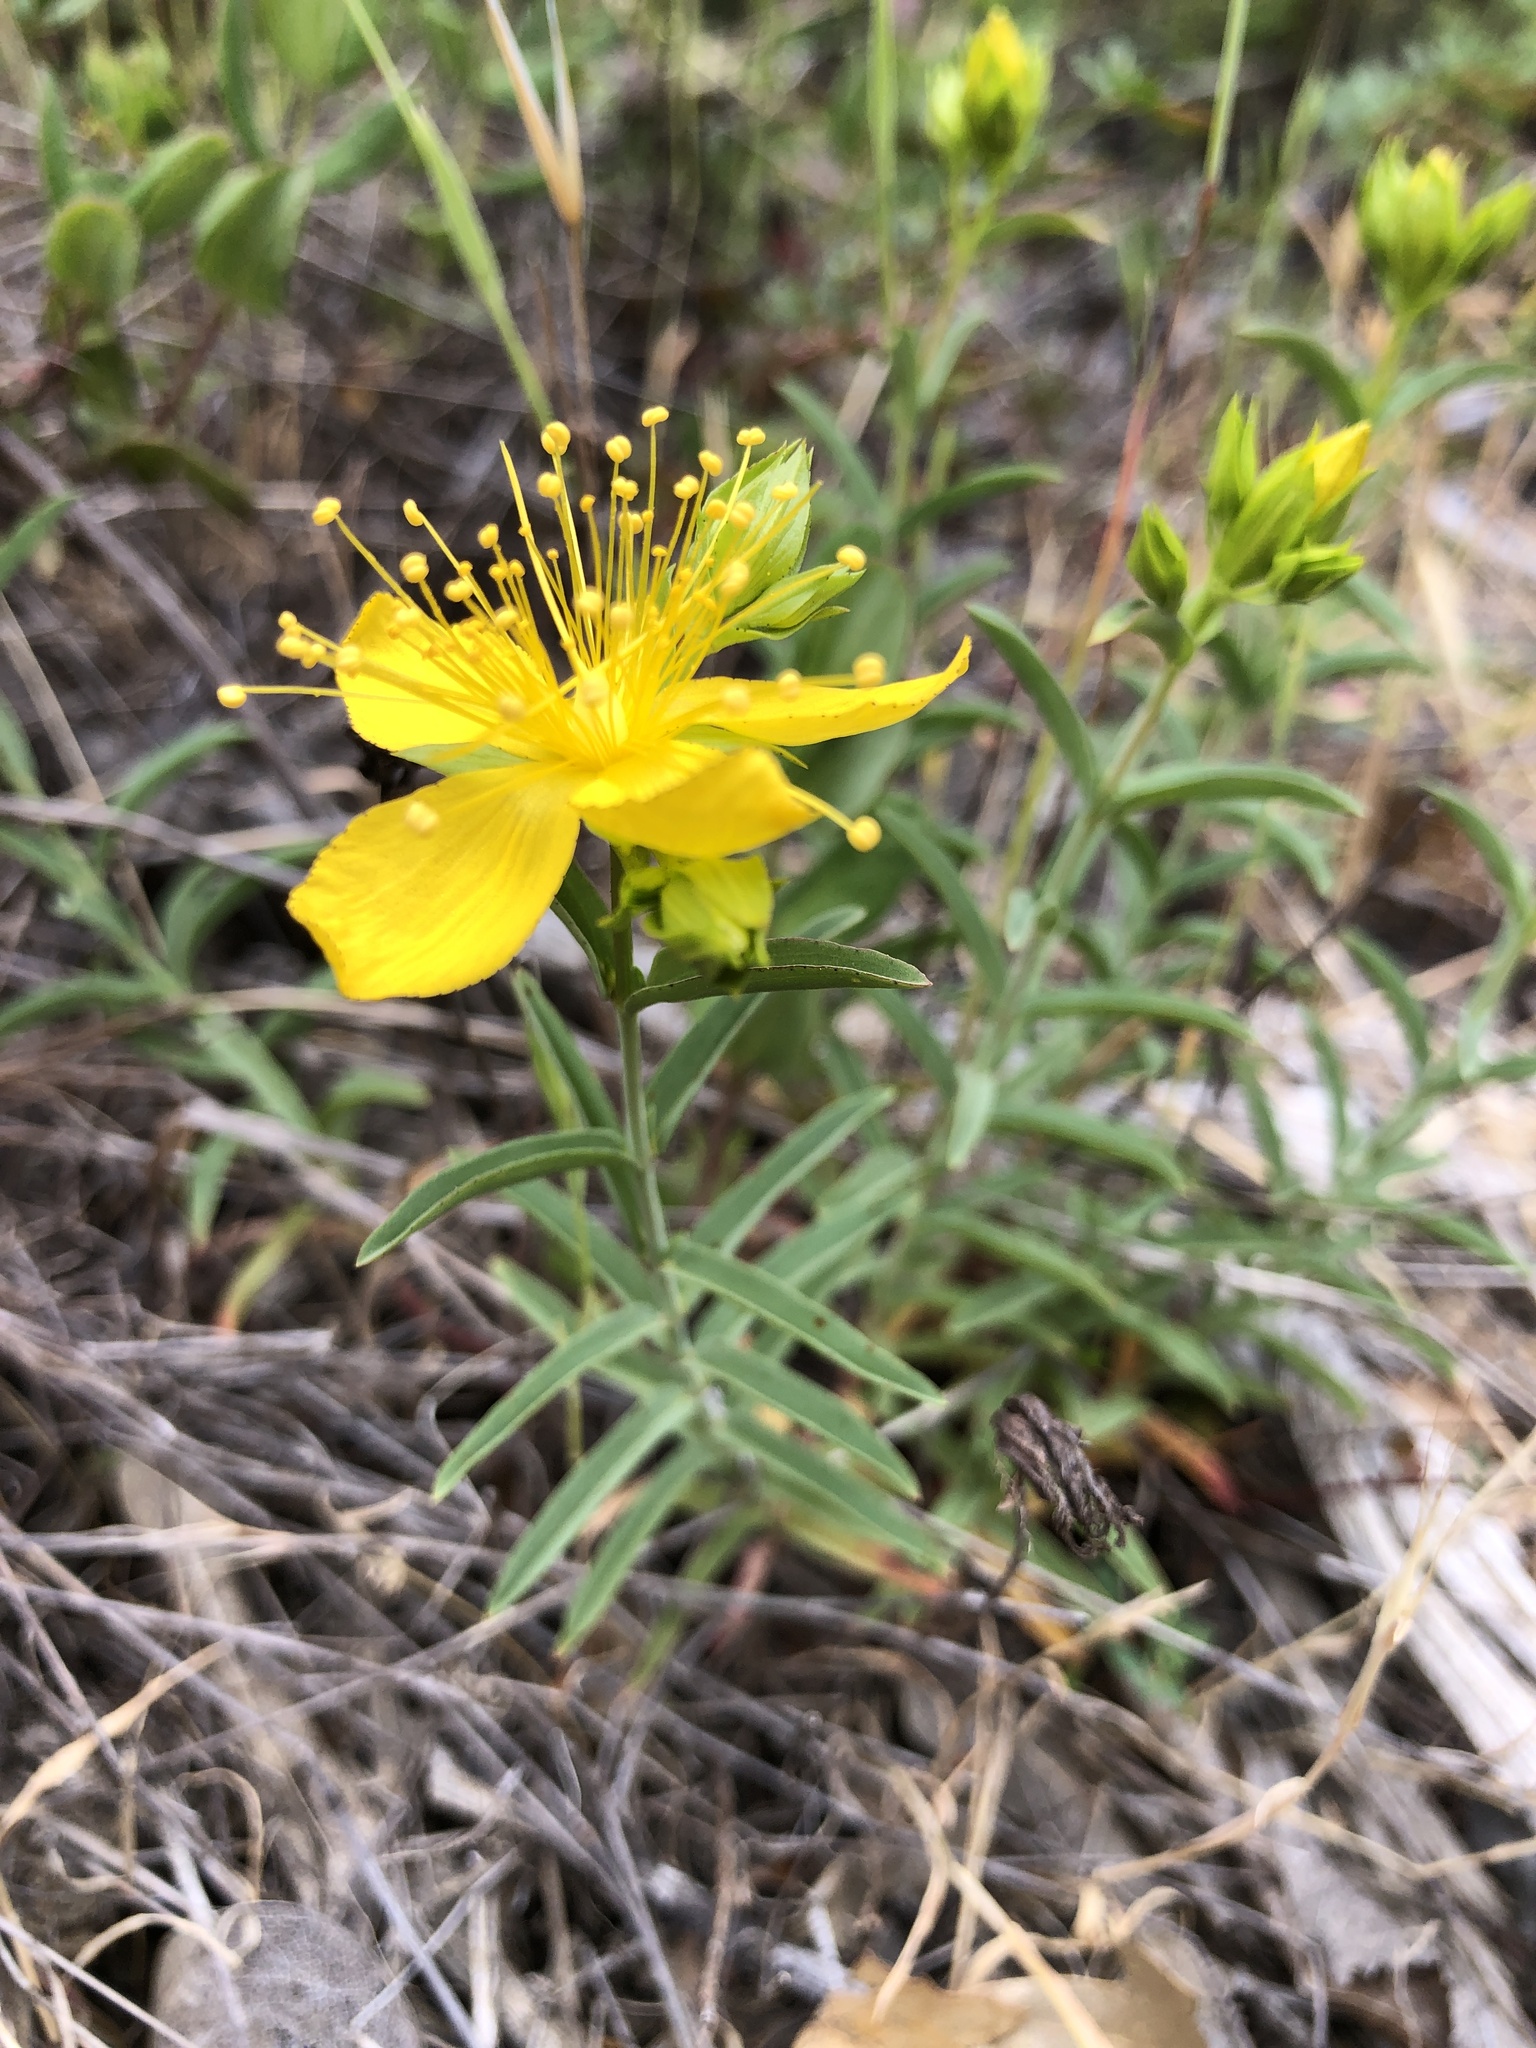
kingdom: Plantae
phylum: Tracheophyta
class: Magnoliopsida
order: Malpighiales
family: Hypericaceae
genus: Hypericum
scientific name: Hypericum concinnum
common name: Gold-wire
